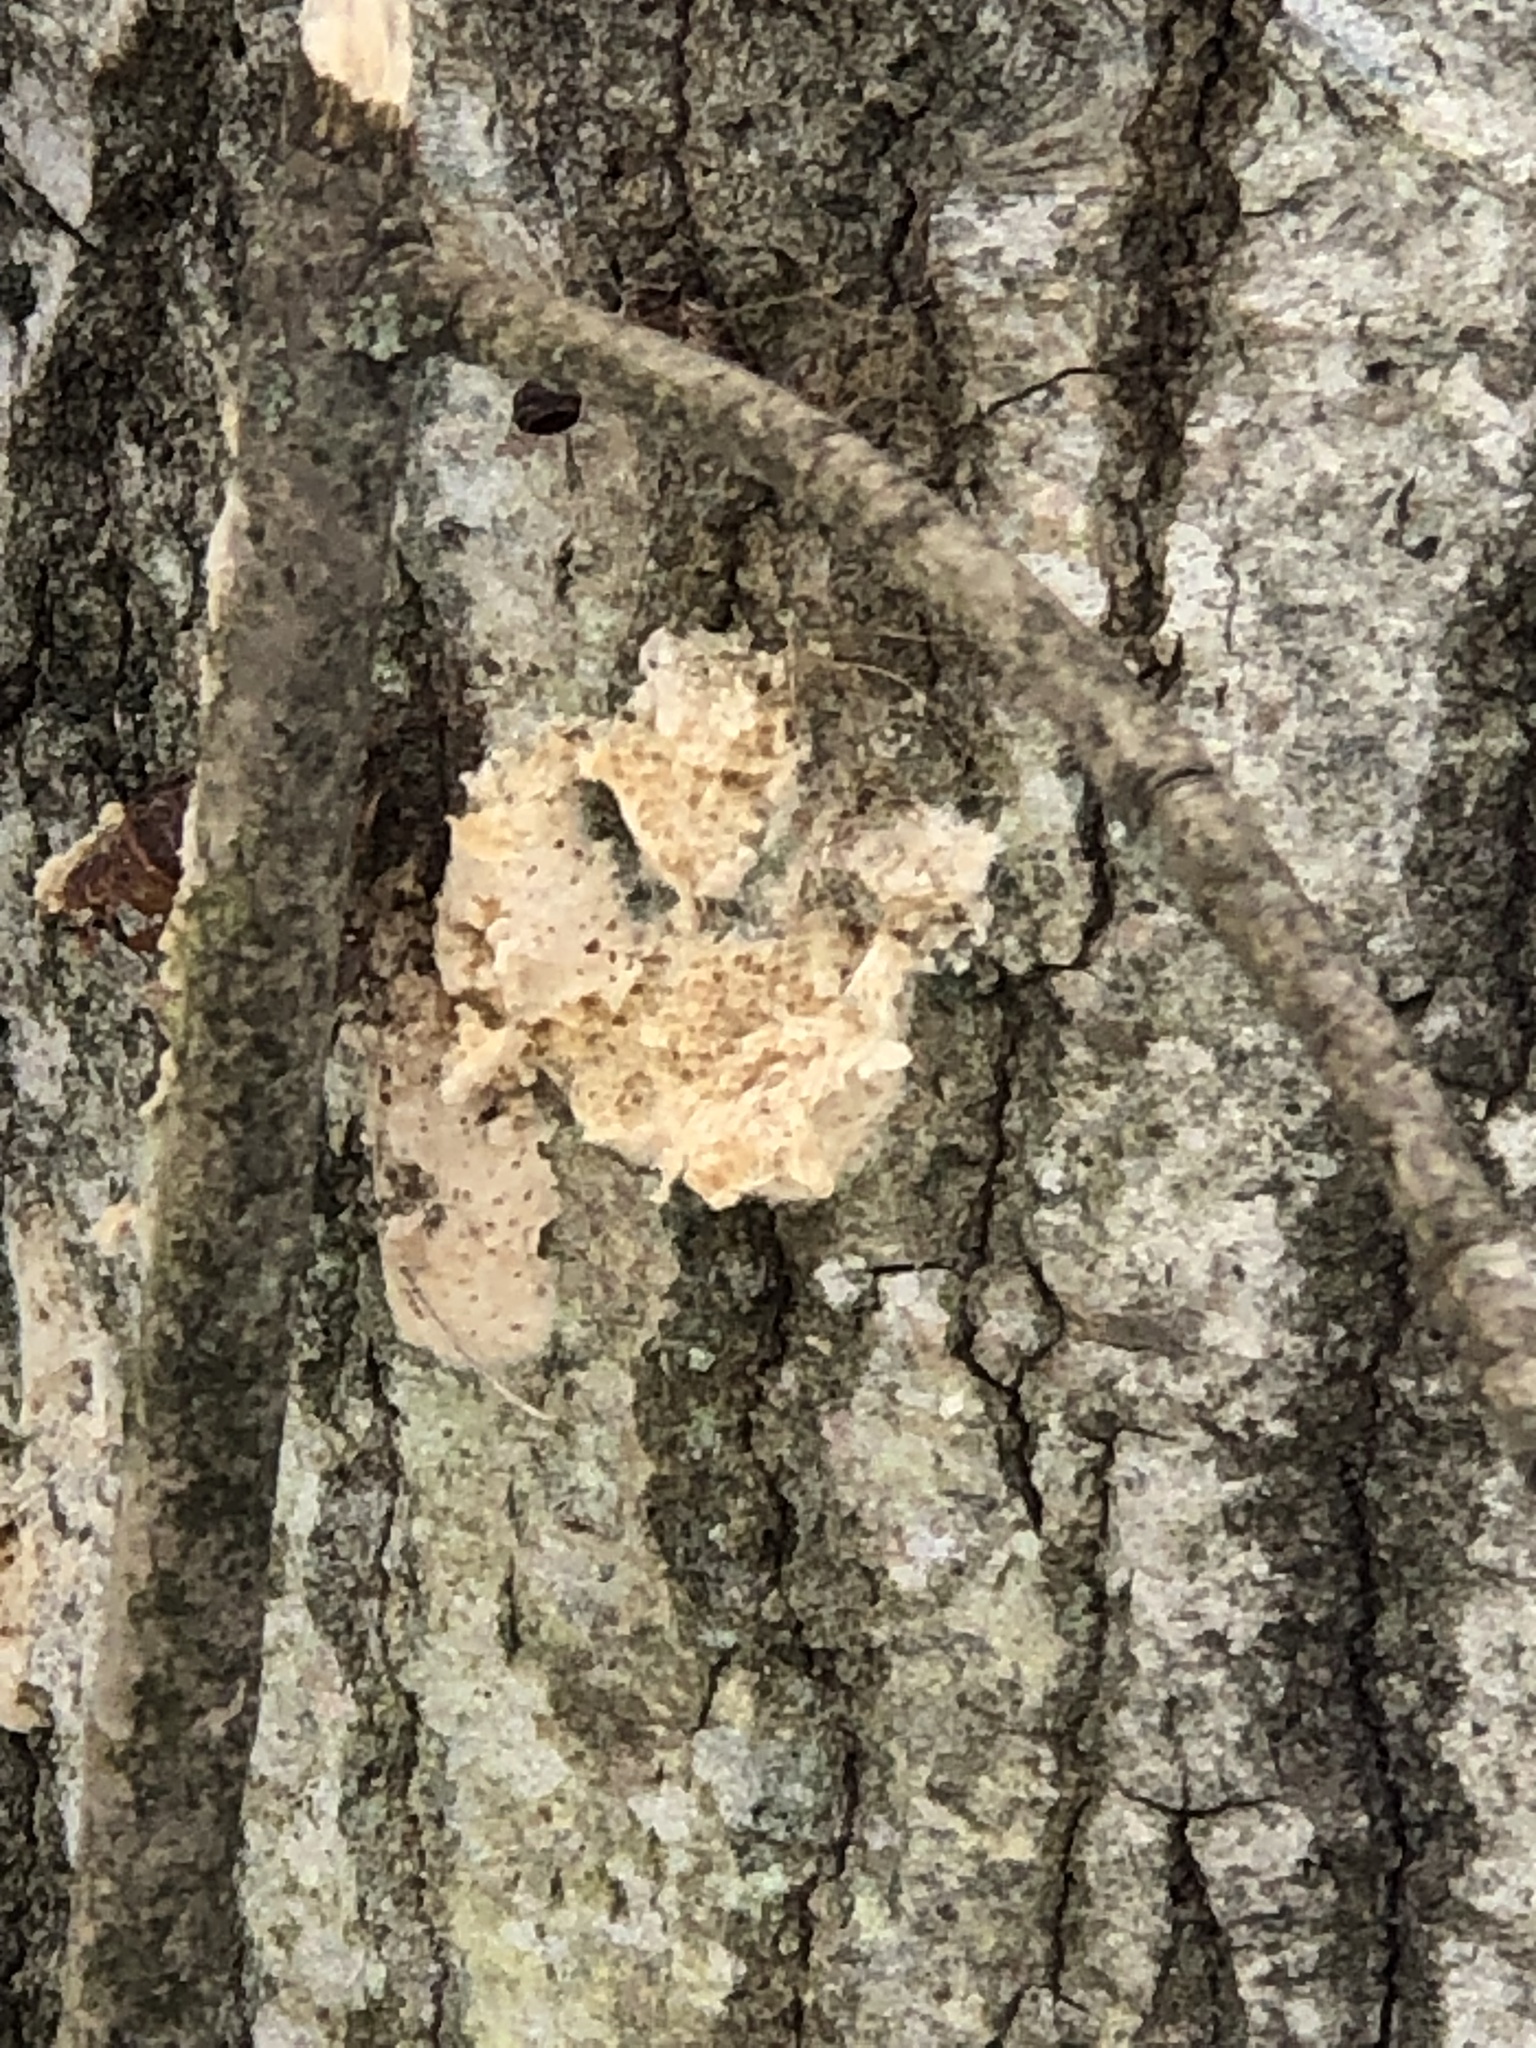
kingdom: Animalia
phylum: Arthropoda
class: Insecta
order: Lepidoptera
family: Erebidae
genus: Lymantria
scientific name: Lymantria dispar
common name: Gypsy moth
